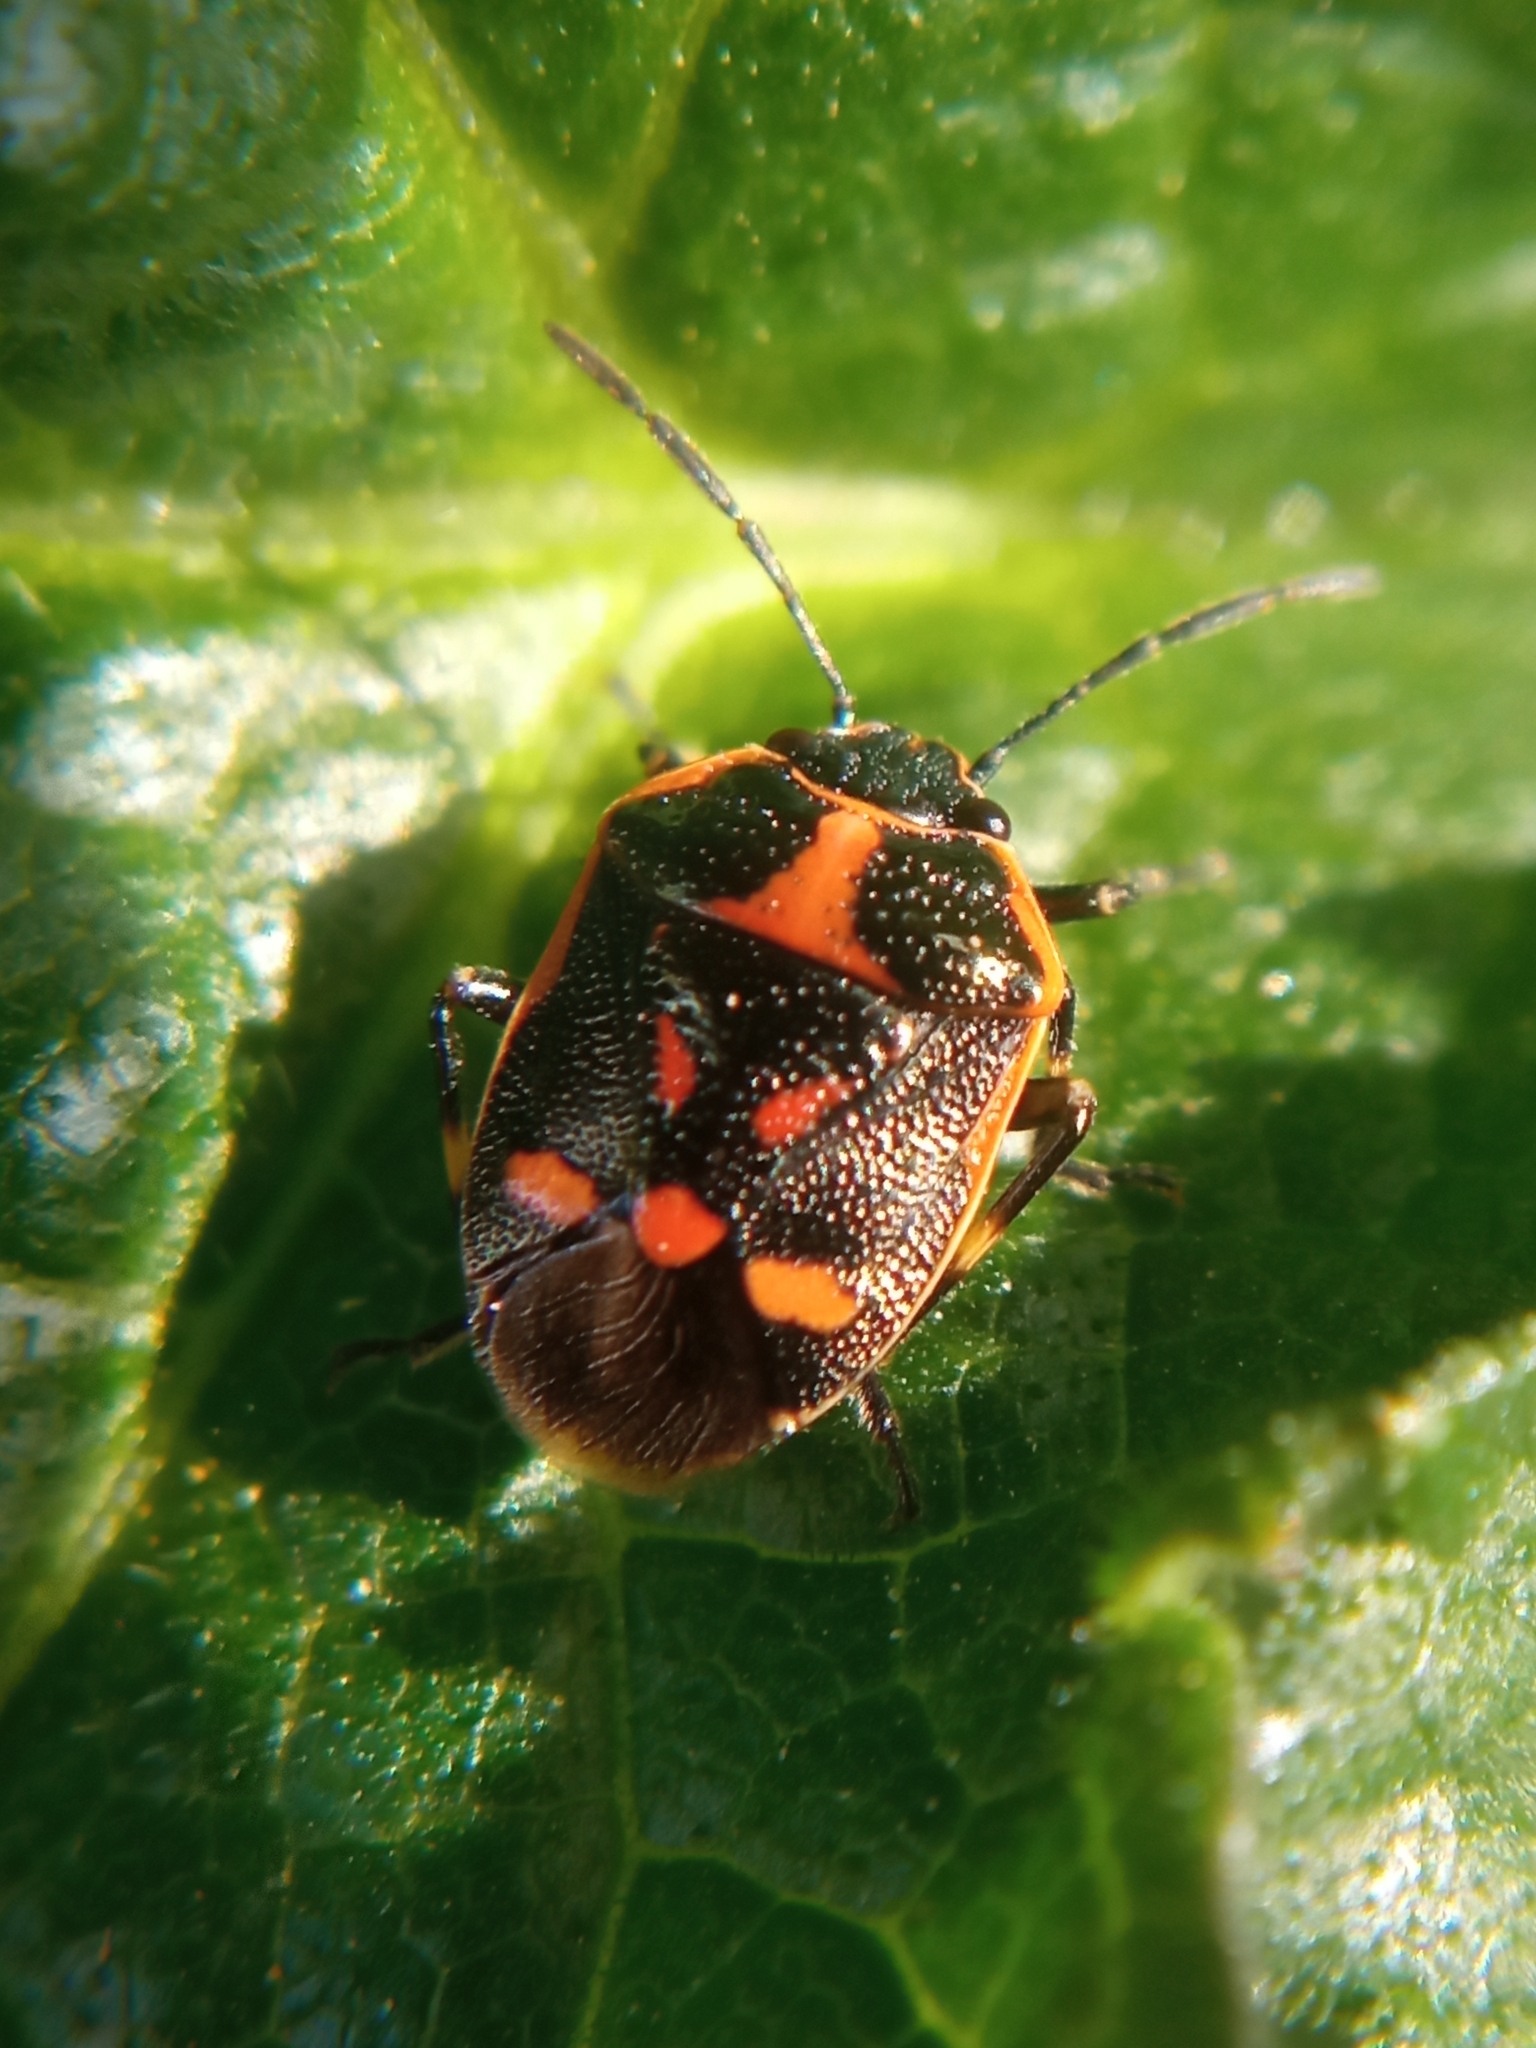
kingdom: Animalia
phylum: Arthropoda
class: Insecta
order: Hemiptera
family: Pentatomidae
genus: Eurydema
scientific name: Eurydema oleracea
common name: Cabbage bug
